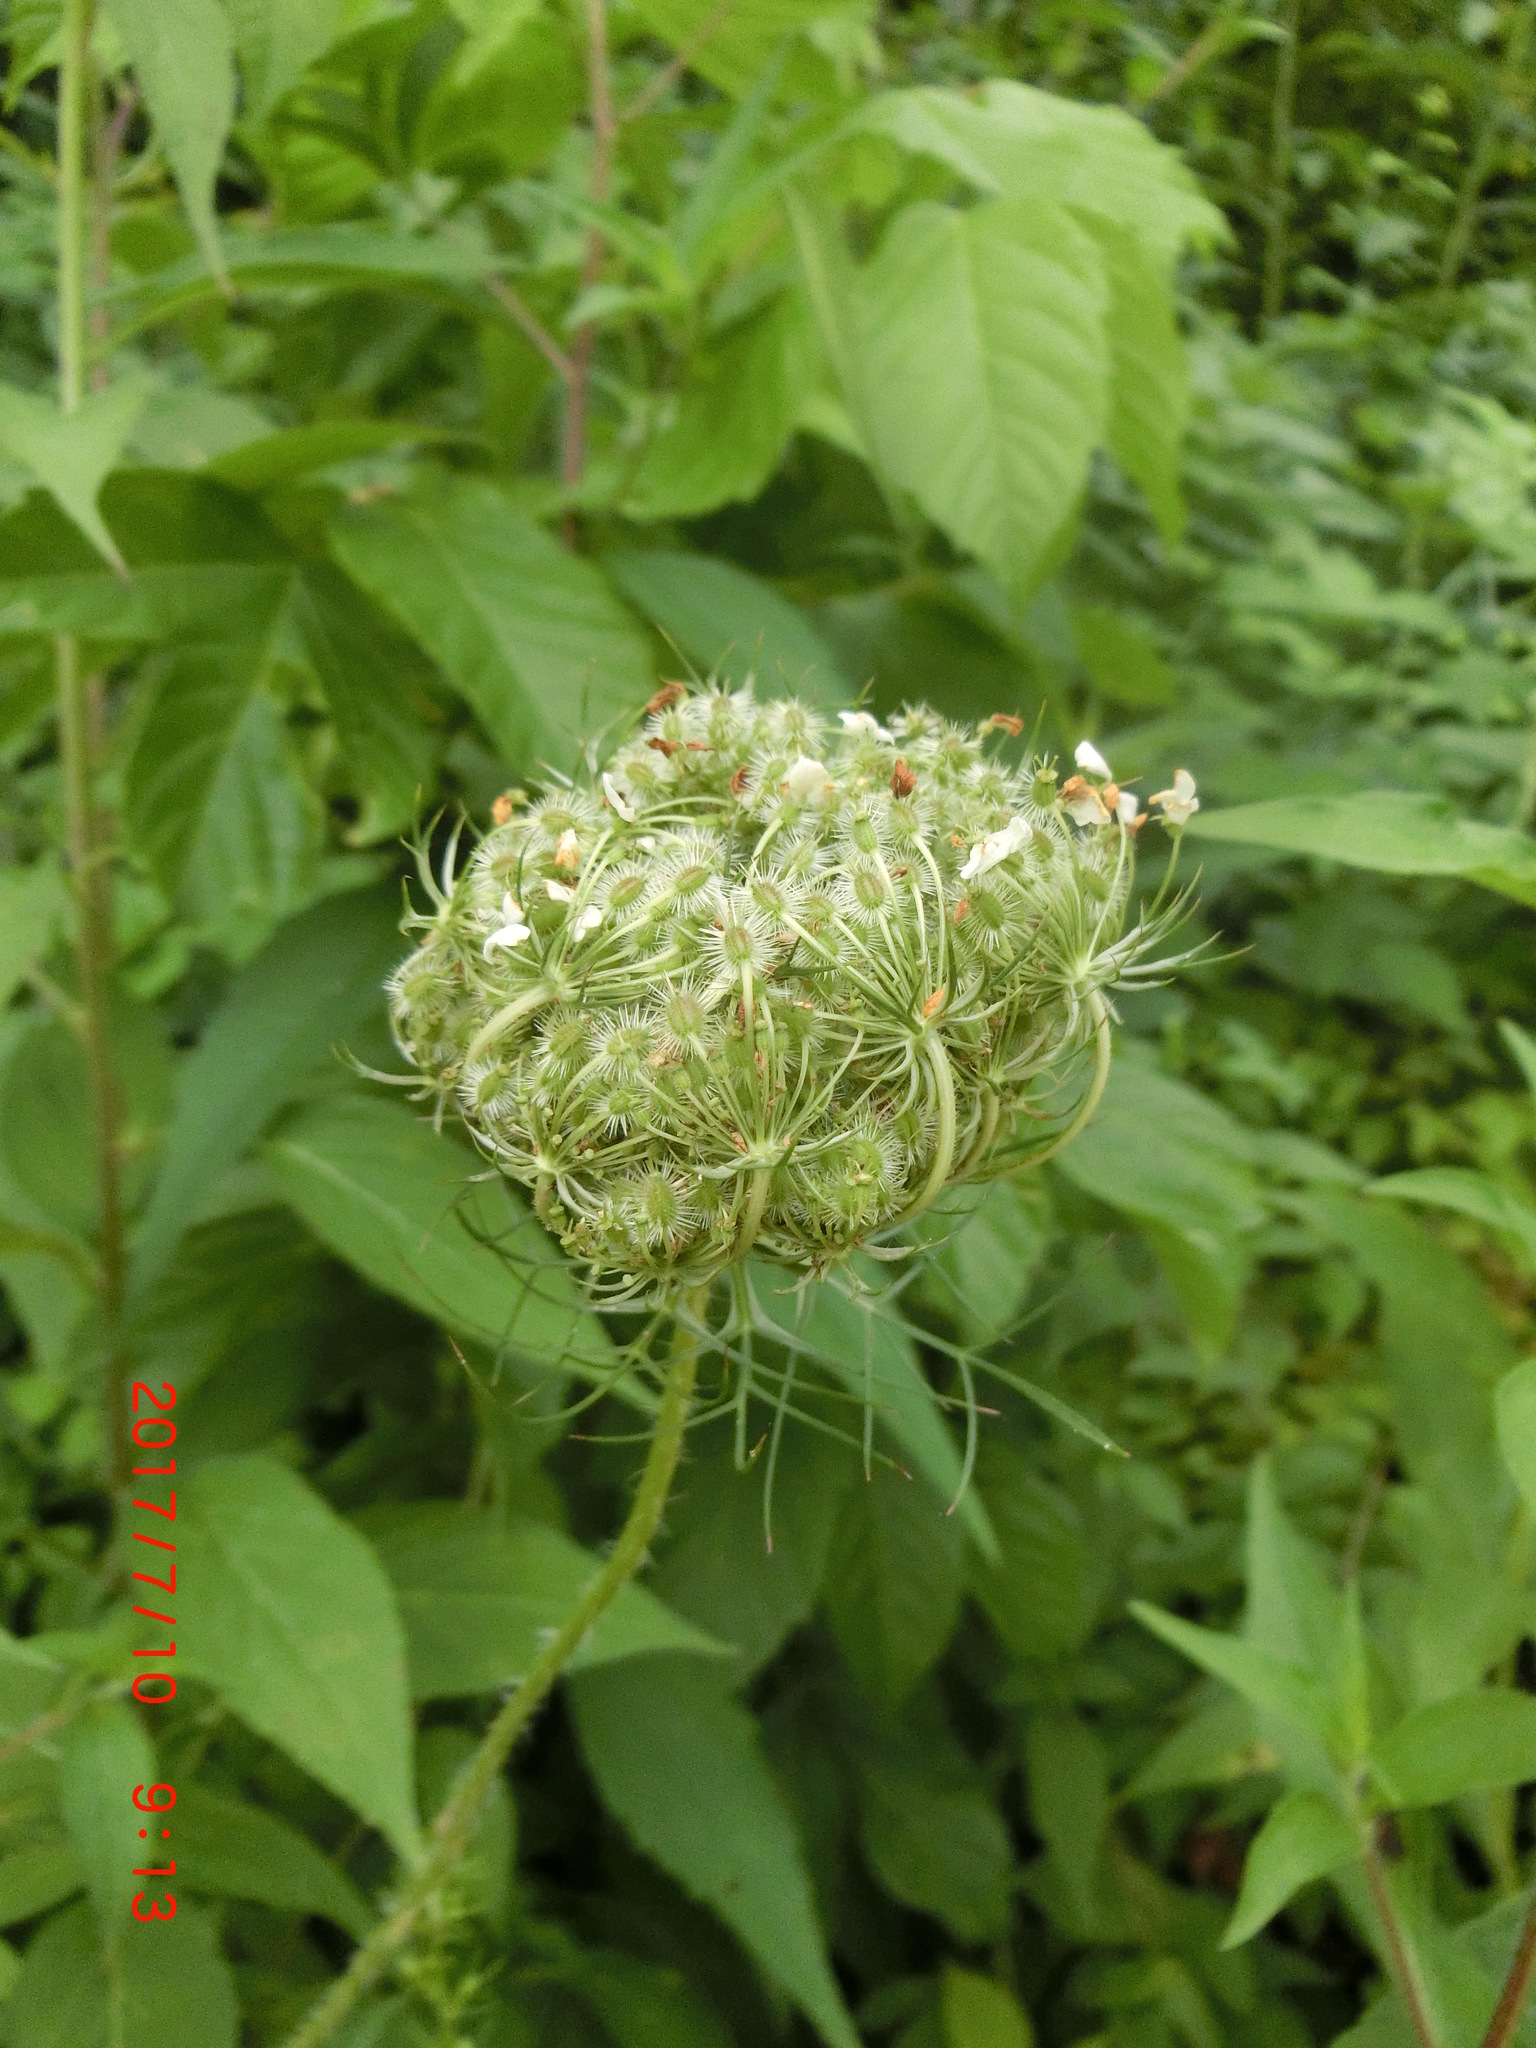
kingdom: Plantae
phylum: Tracheophyta
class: Magnoliopsida
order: Apiales
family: Apiaceae
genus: Daucus
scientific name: Daucus carota
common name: Wild carrot
